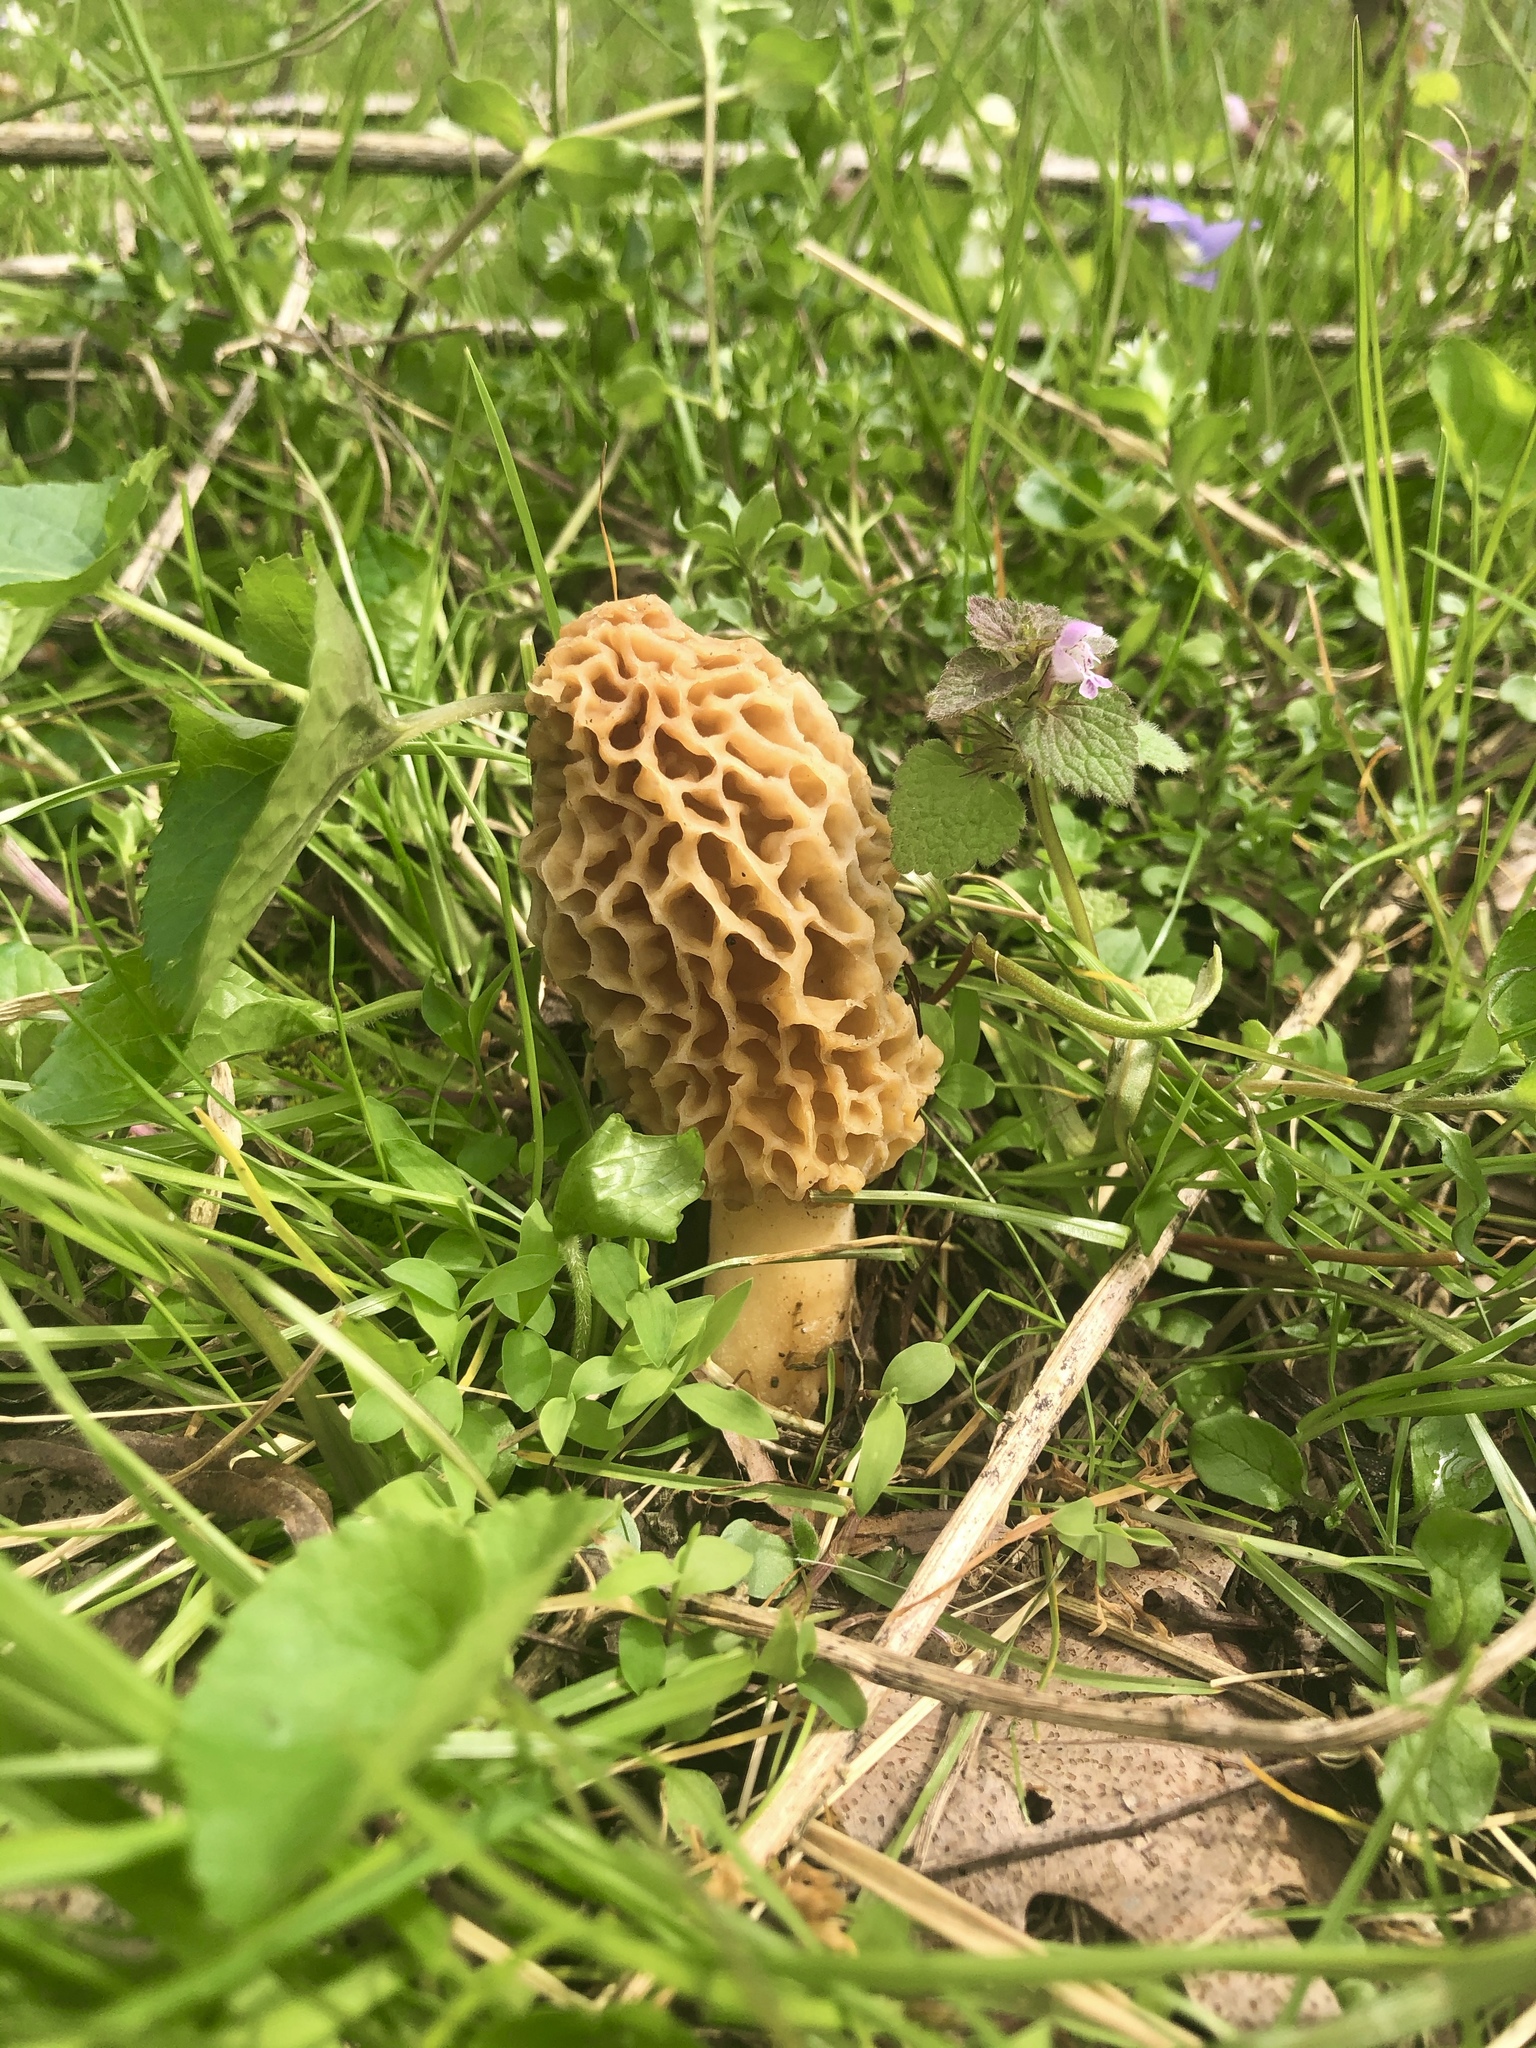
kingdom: Fungi
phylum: Ascomycota
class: Pezizomycetes
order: Pezizales
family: Morchellaceae
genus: Morchella
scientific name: Morchella americana
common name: White morel
